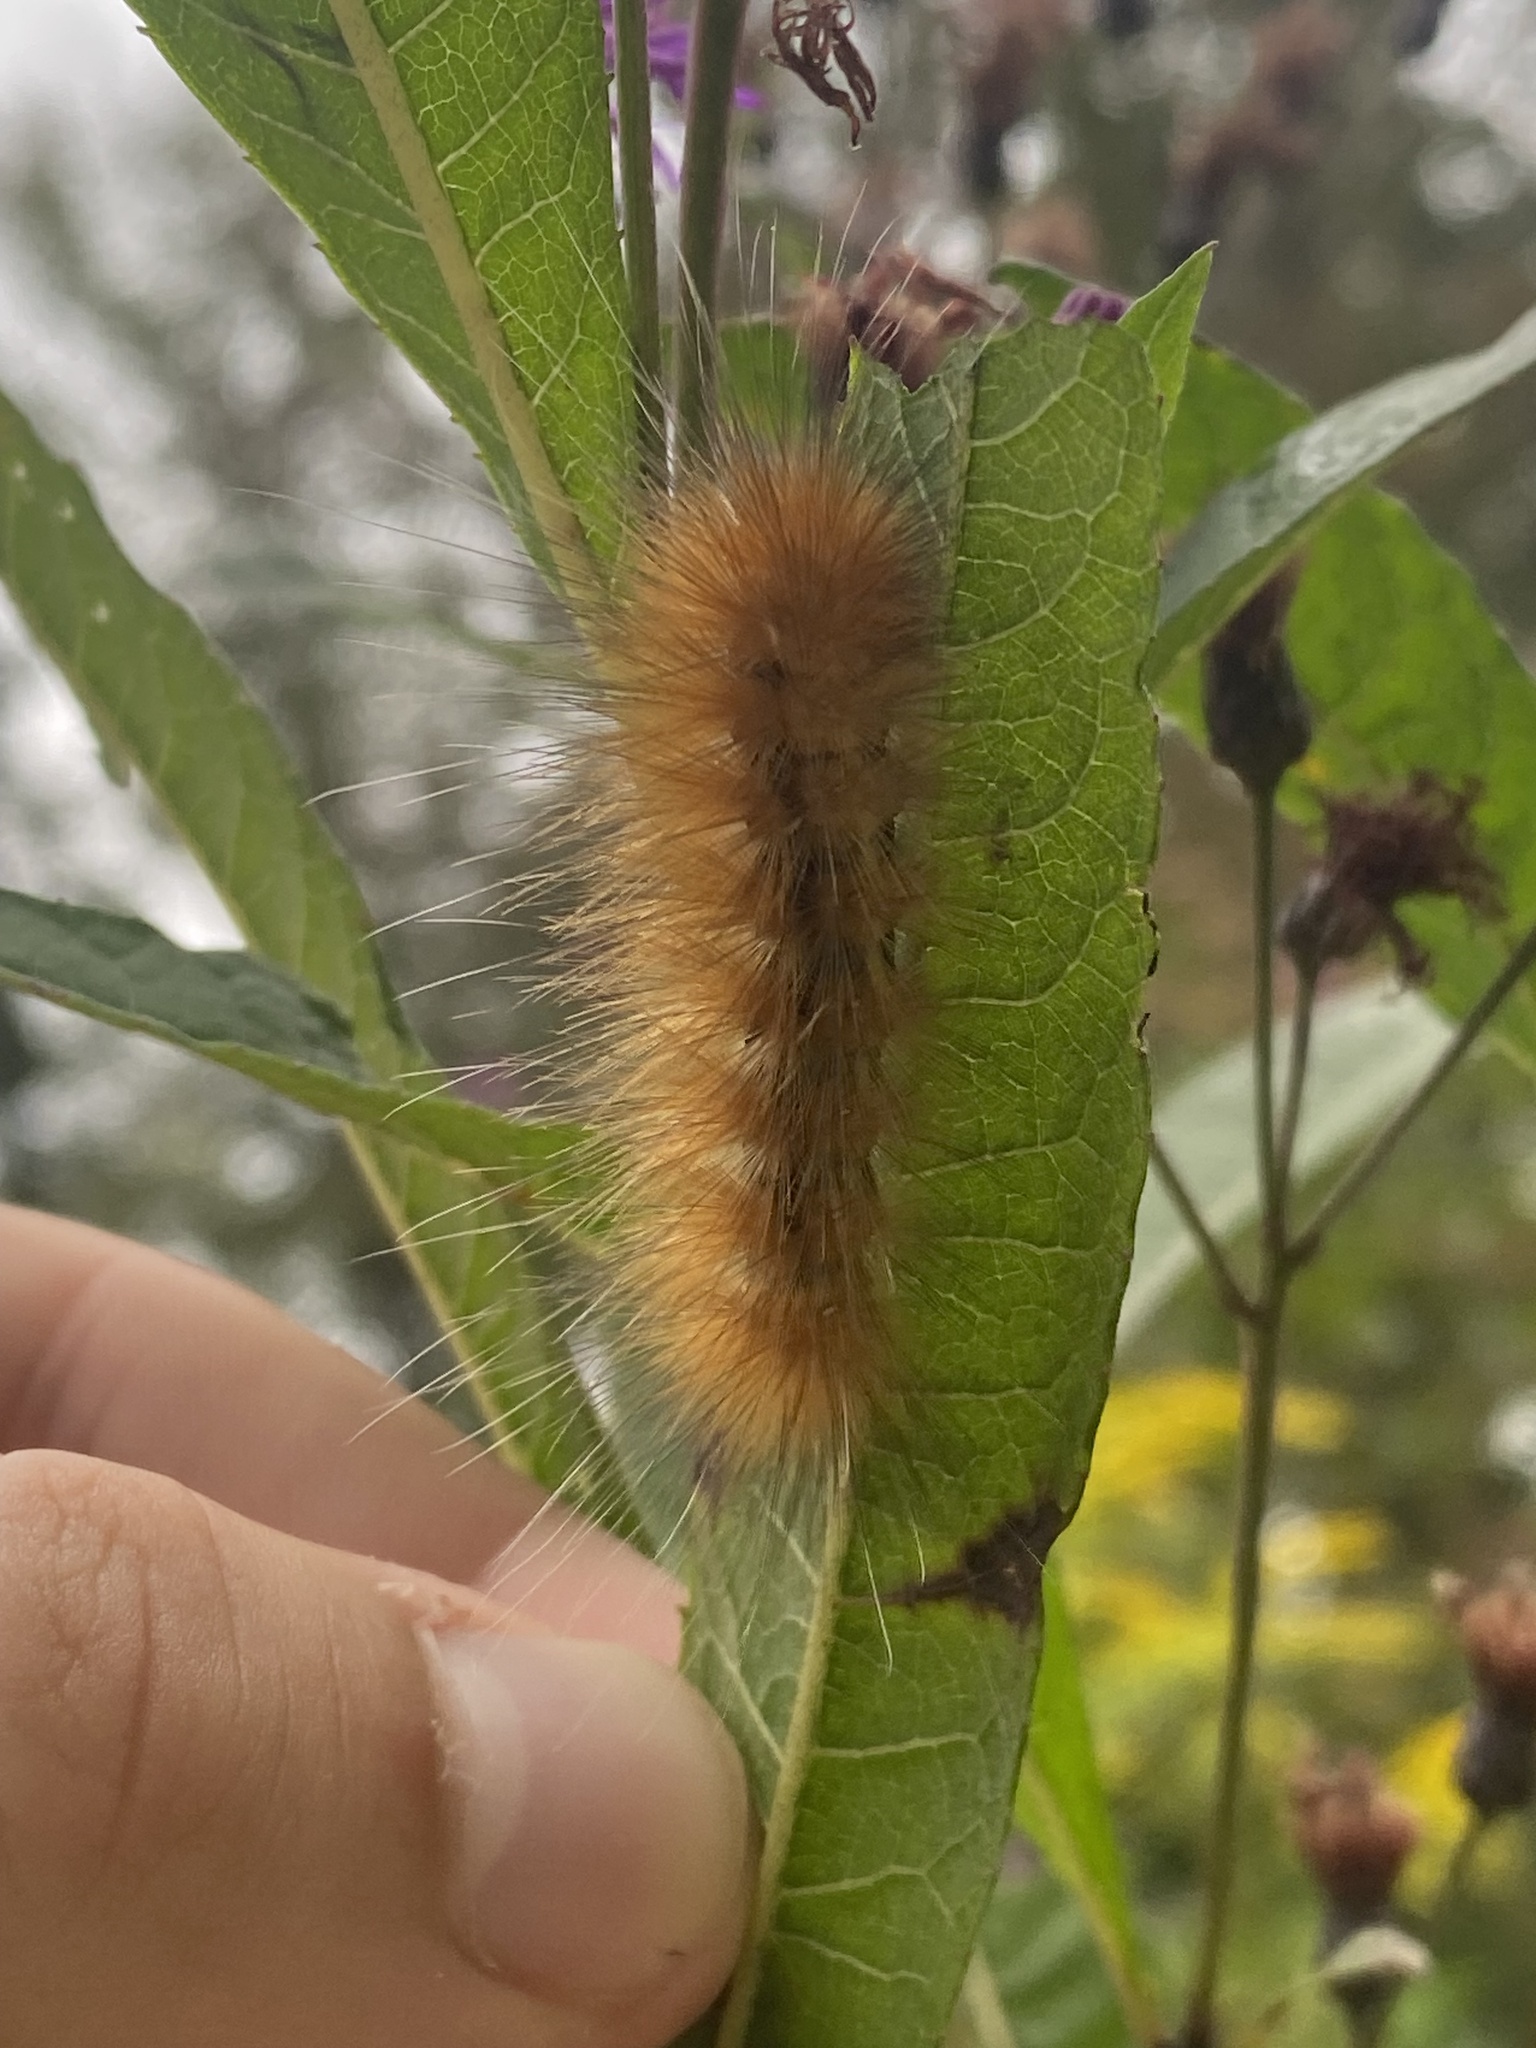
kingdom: Animalia
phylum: Arthropoda
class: Insecta
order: Lepidoptera
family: Erebidae
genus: Spilosoma
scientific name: Spilosoma virginica
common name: Virginia tiger moth
